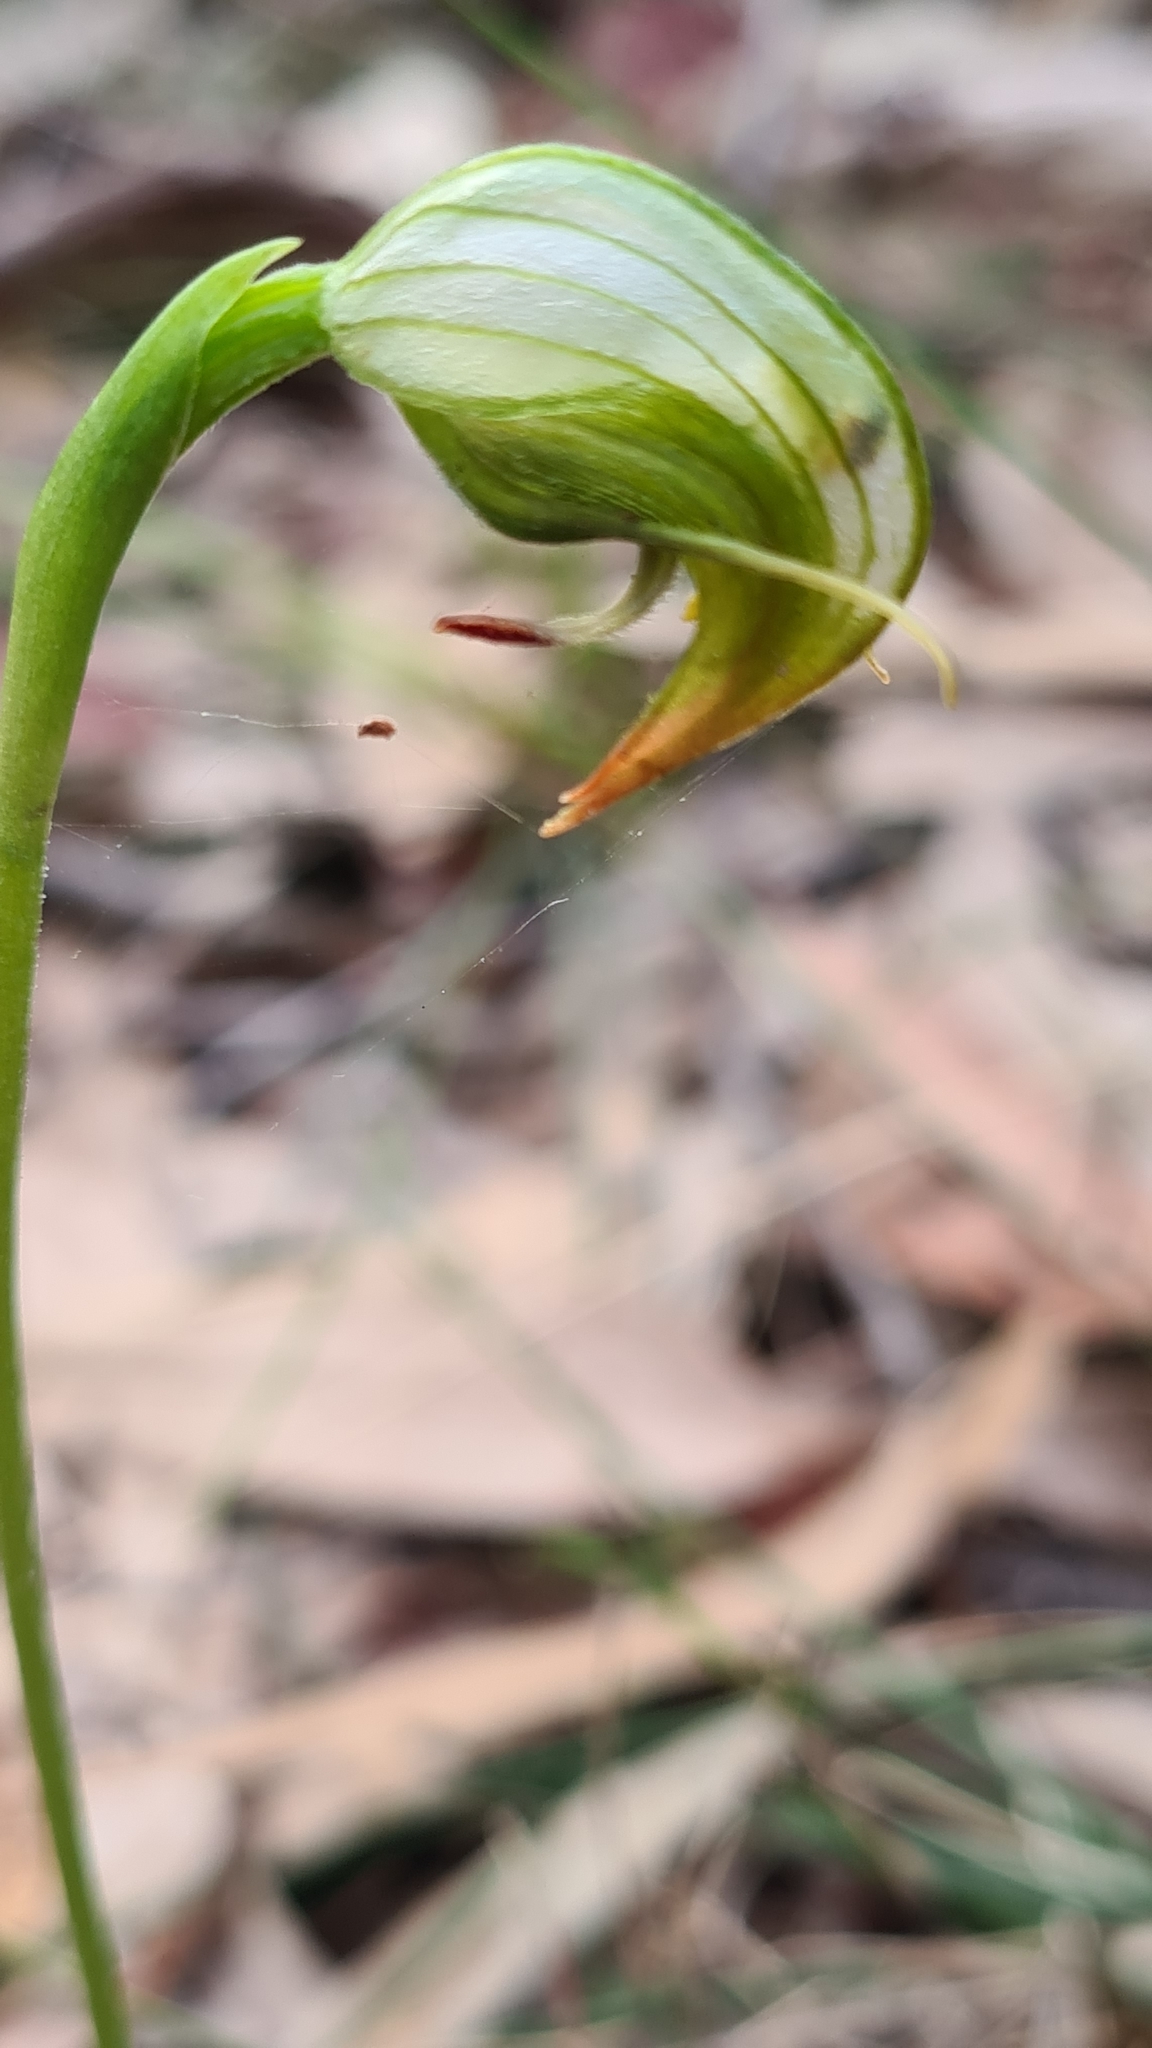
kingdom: Plantae
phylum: Tracheophyta
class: Liliopsida
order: Asparagales
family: Orchidaceae
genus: Pterostylis
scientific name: Pterostylis nutans
